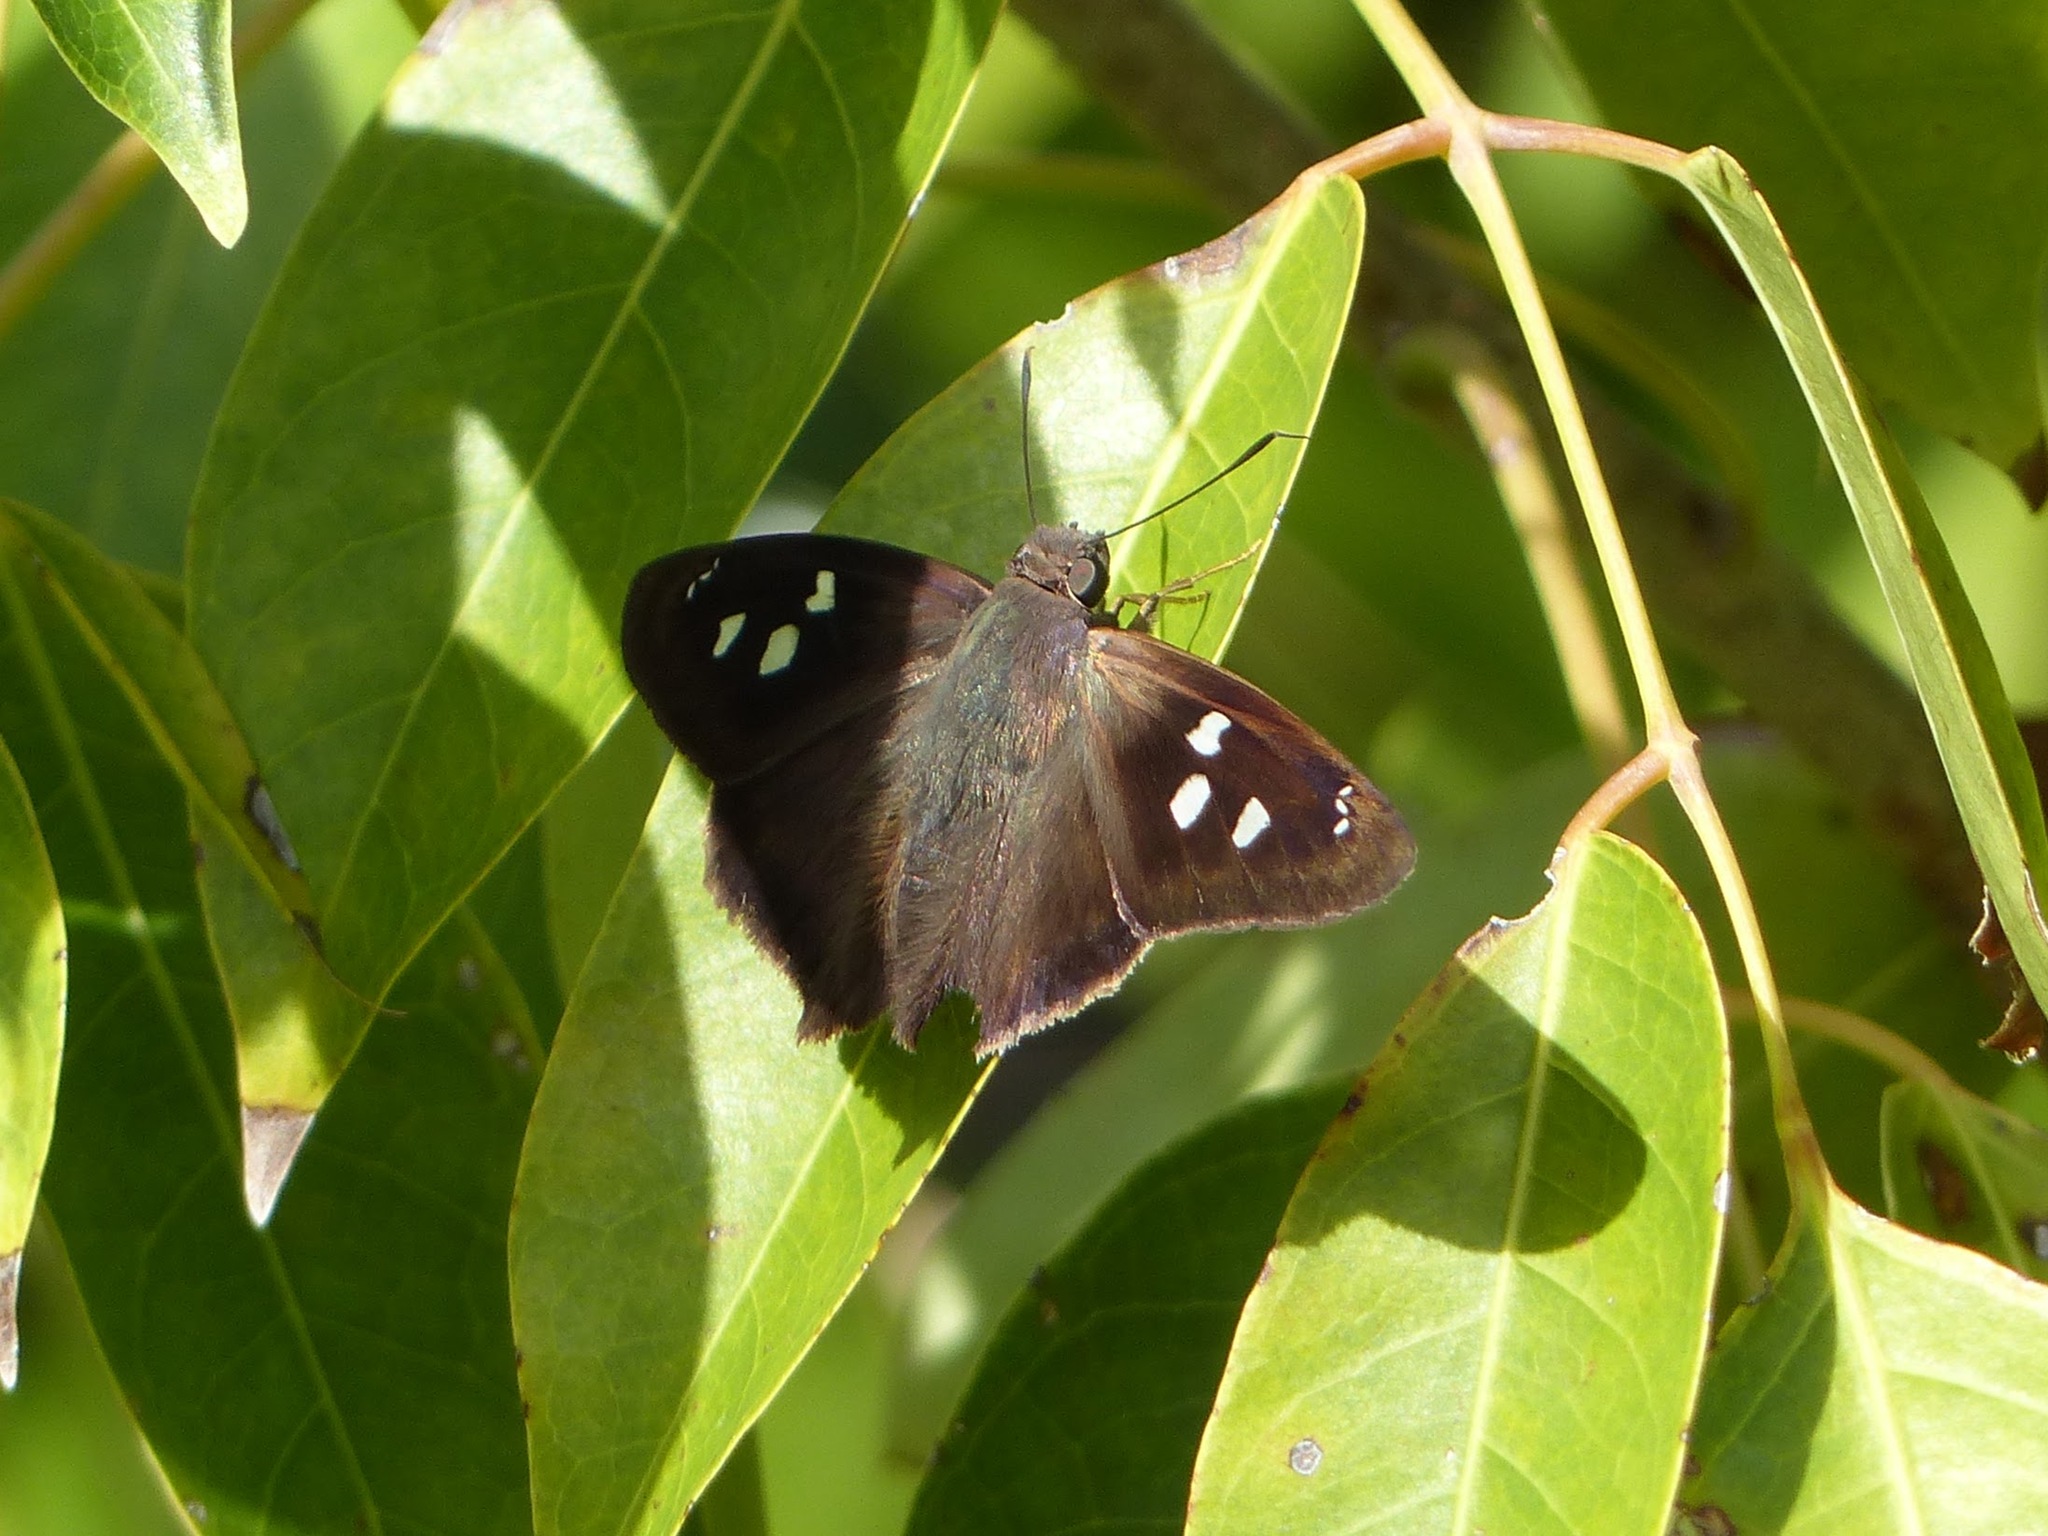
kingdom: Animalia
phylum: Arthropoda
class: Insecta
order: Lepidoptera
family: Hesperiidae
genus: Polygonus
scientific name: Polygonus leo
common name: Hammoch skipper
